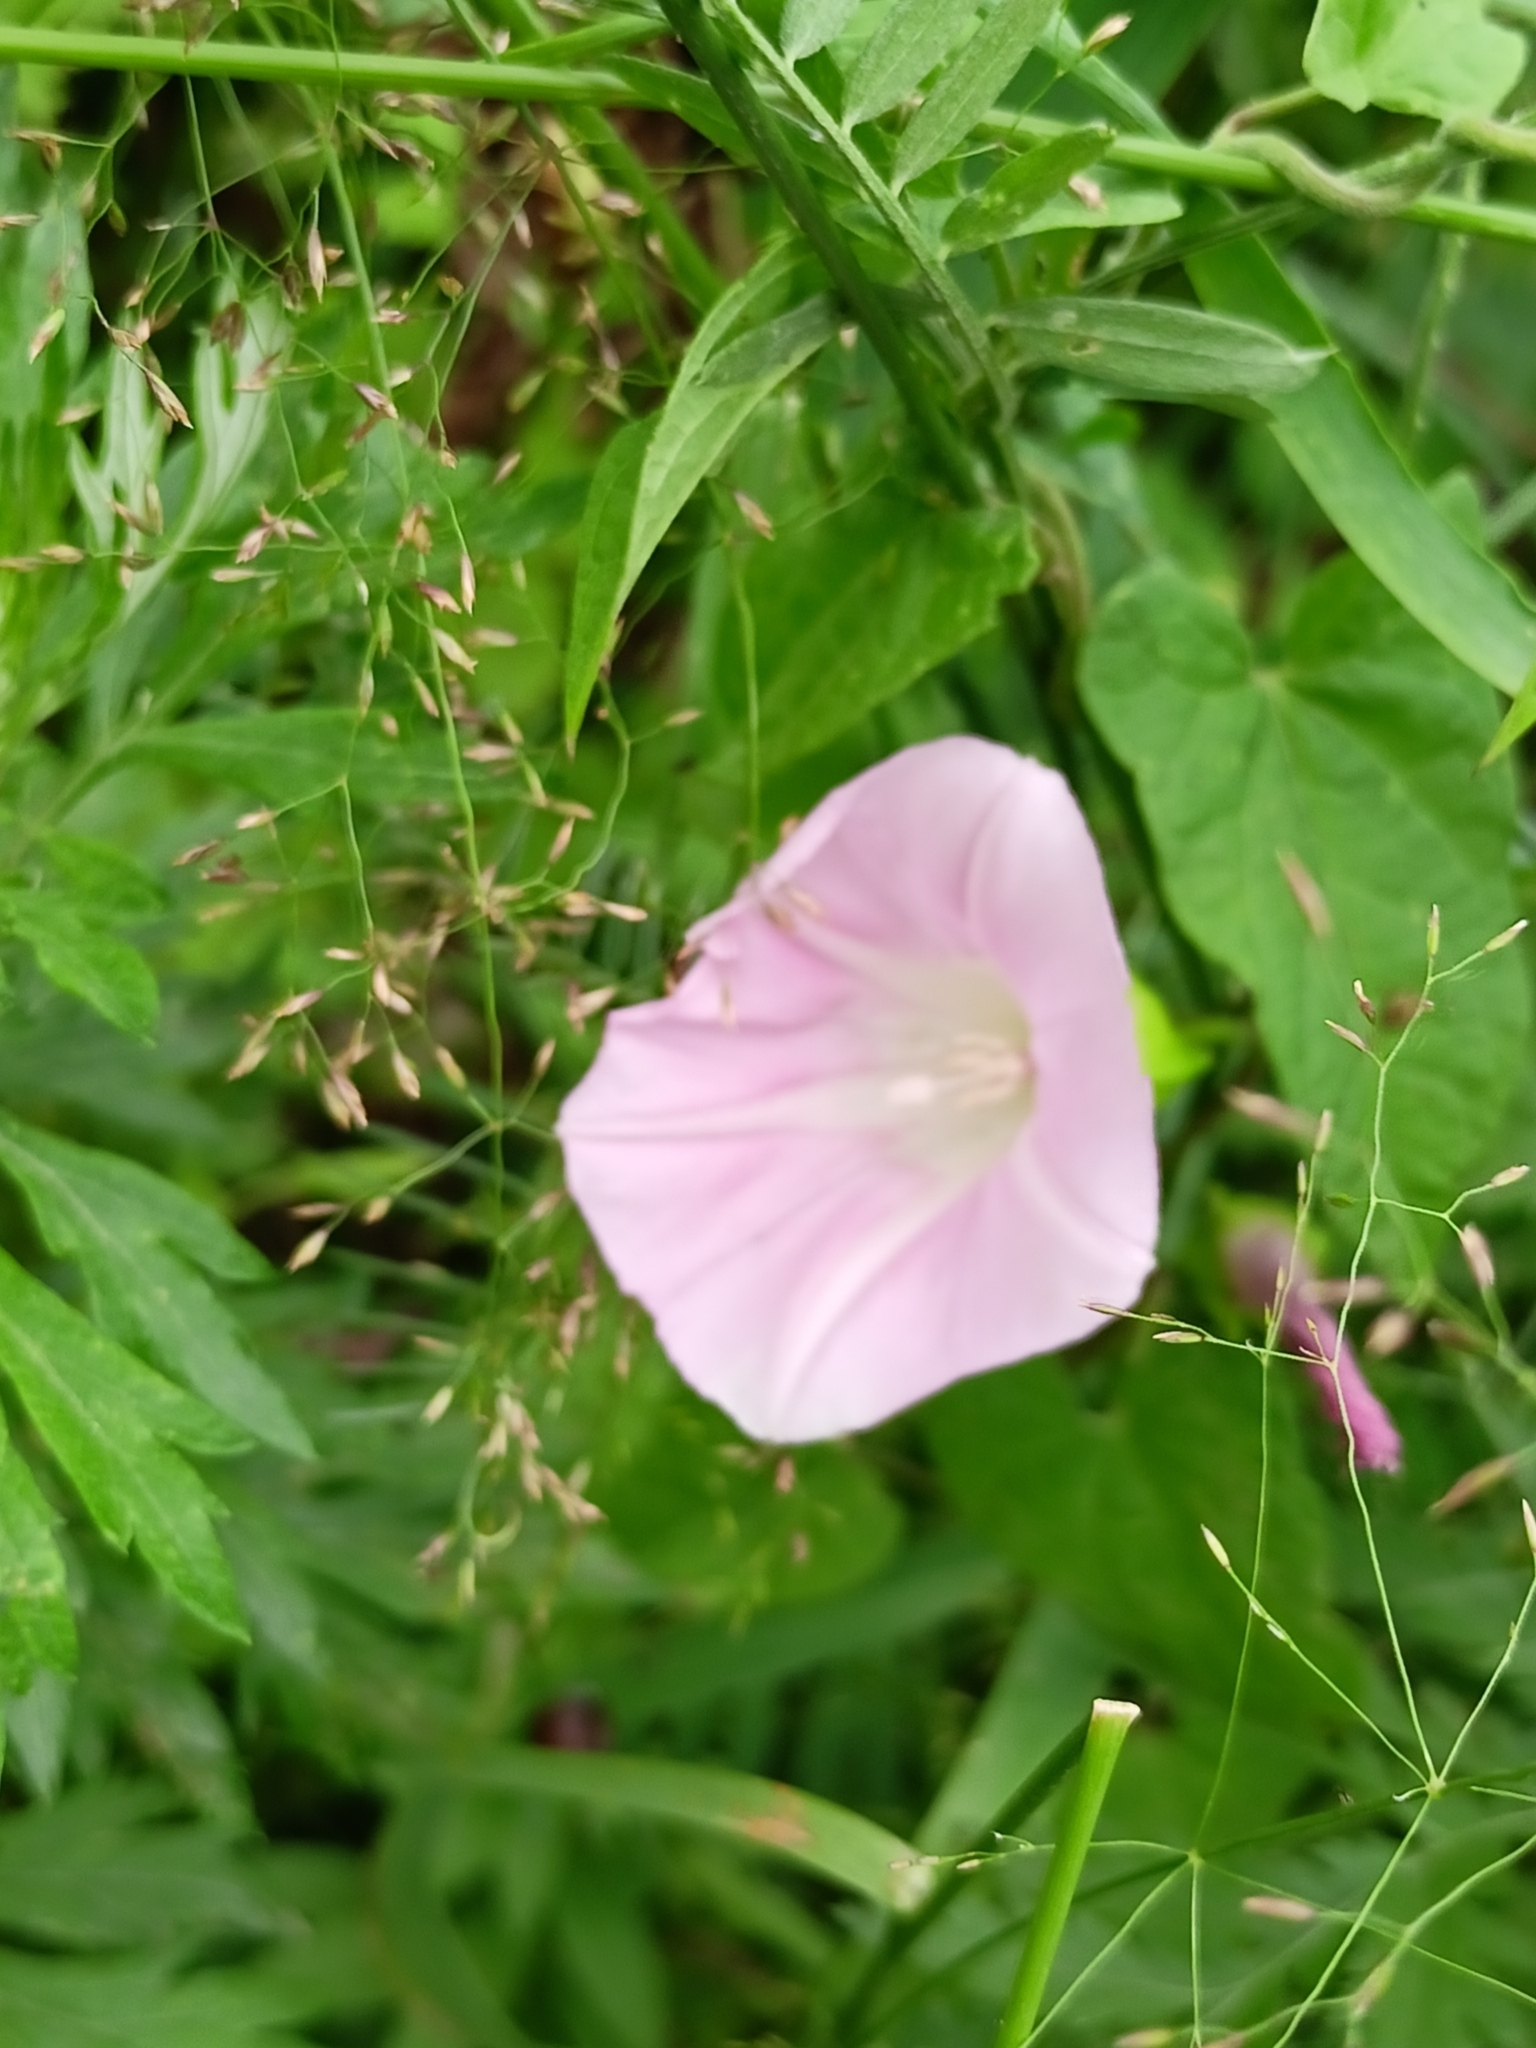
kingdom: Plantae
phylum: Tracheophyta
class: Magnoliopsida
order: Solanales
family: Convolvulaceae
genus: Calystegia
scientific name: Calystegia sepium
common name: Hedge bindweed
